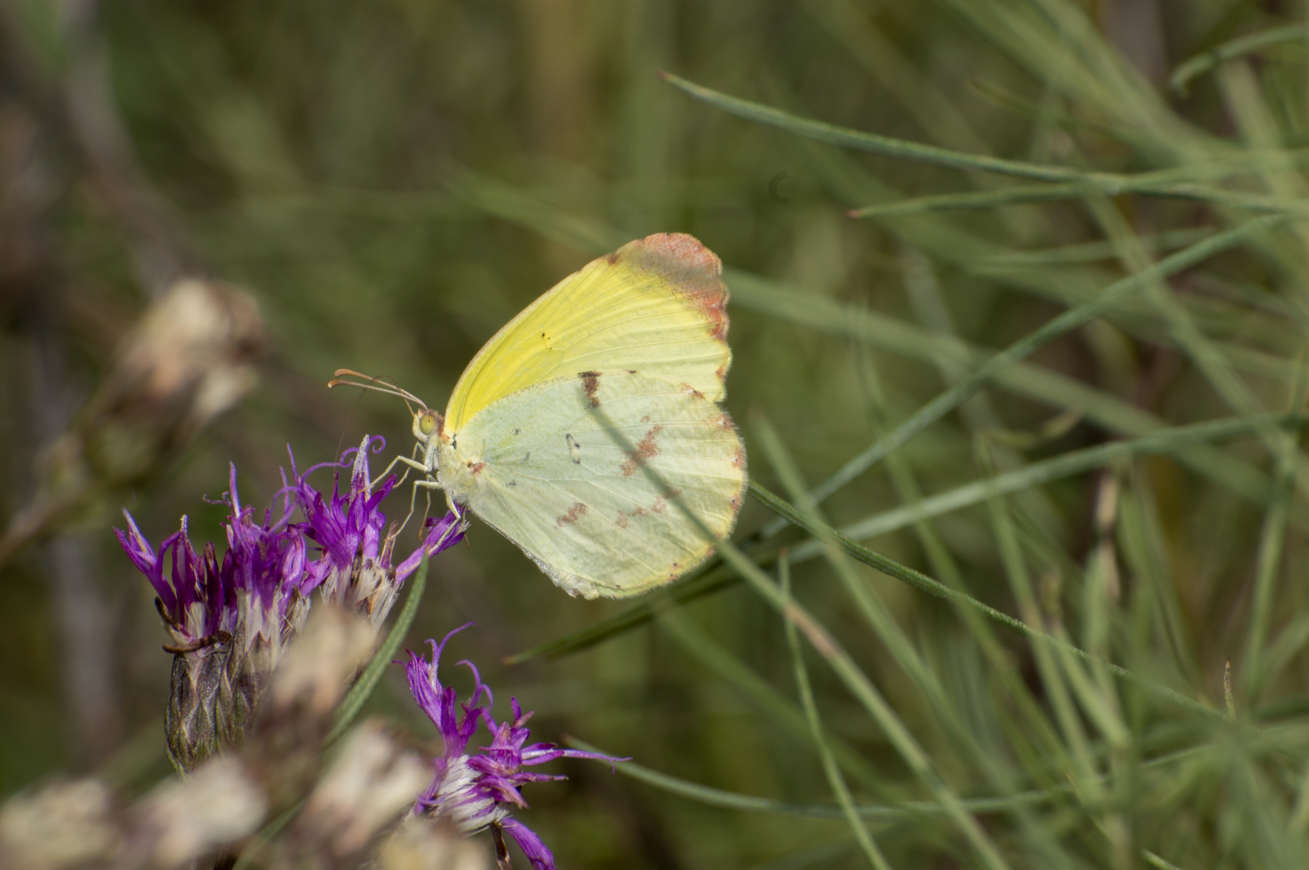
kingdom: Animalia
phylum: Arthropoda
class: Insecta
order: Lepidoptera
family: Pieridae
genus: Teriocolias
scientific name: Teriocolias
